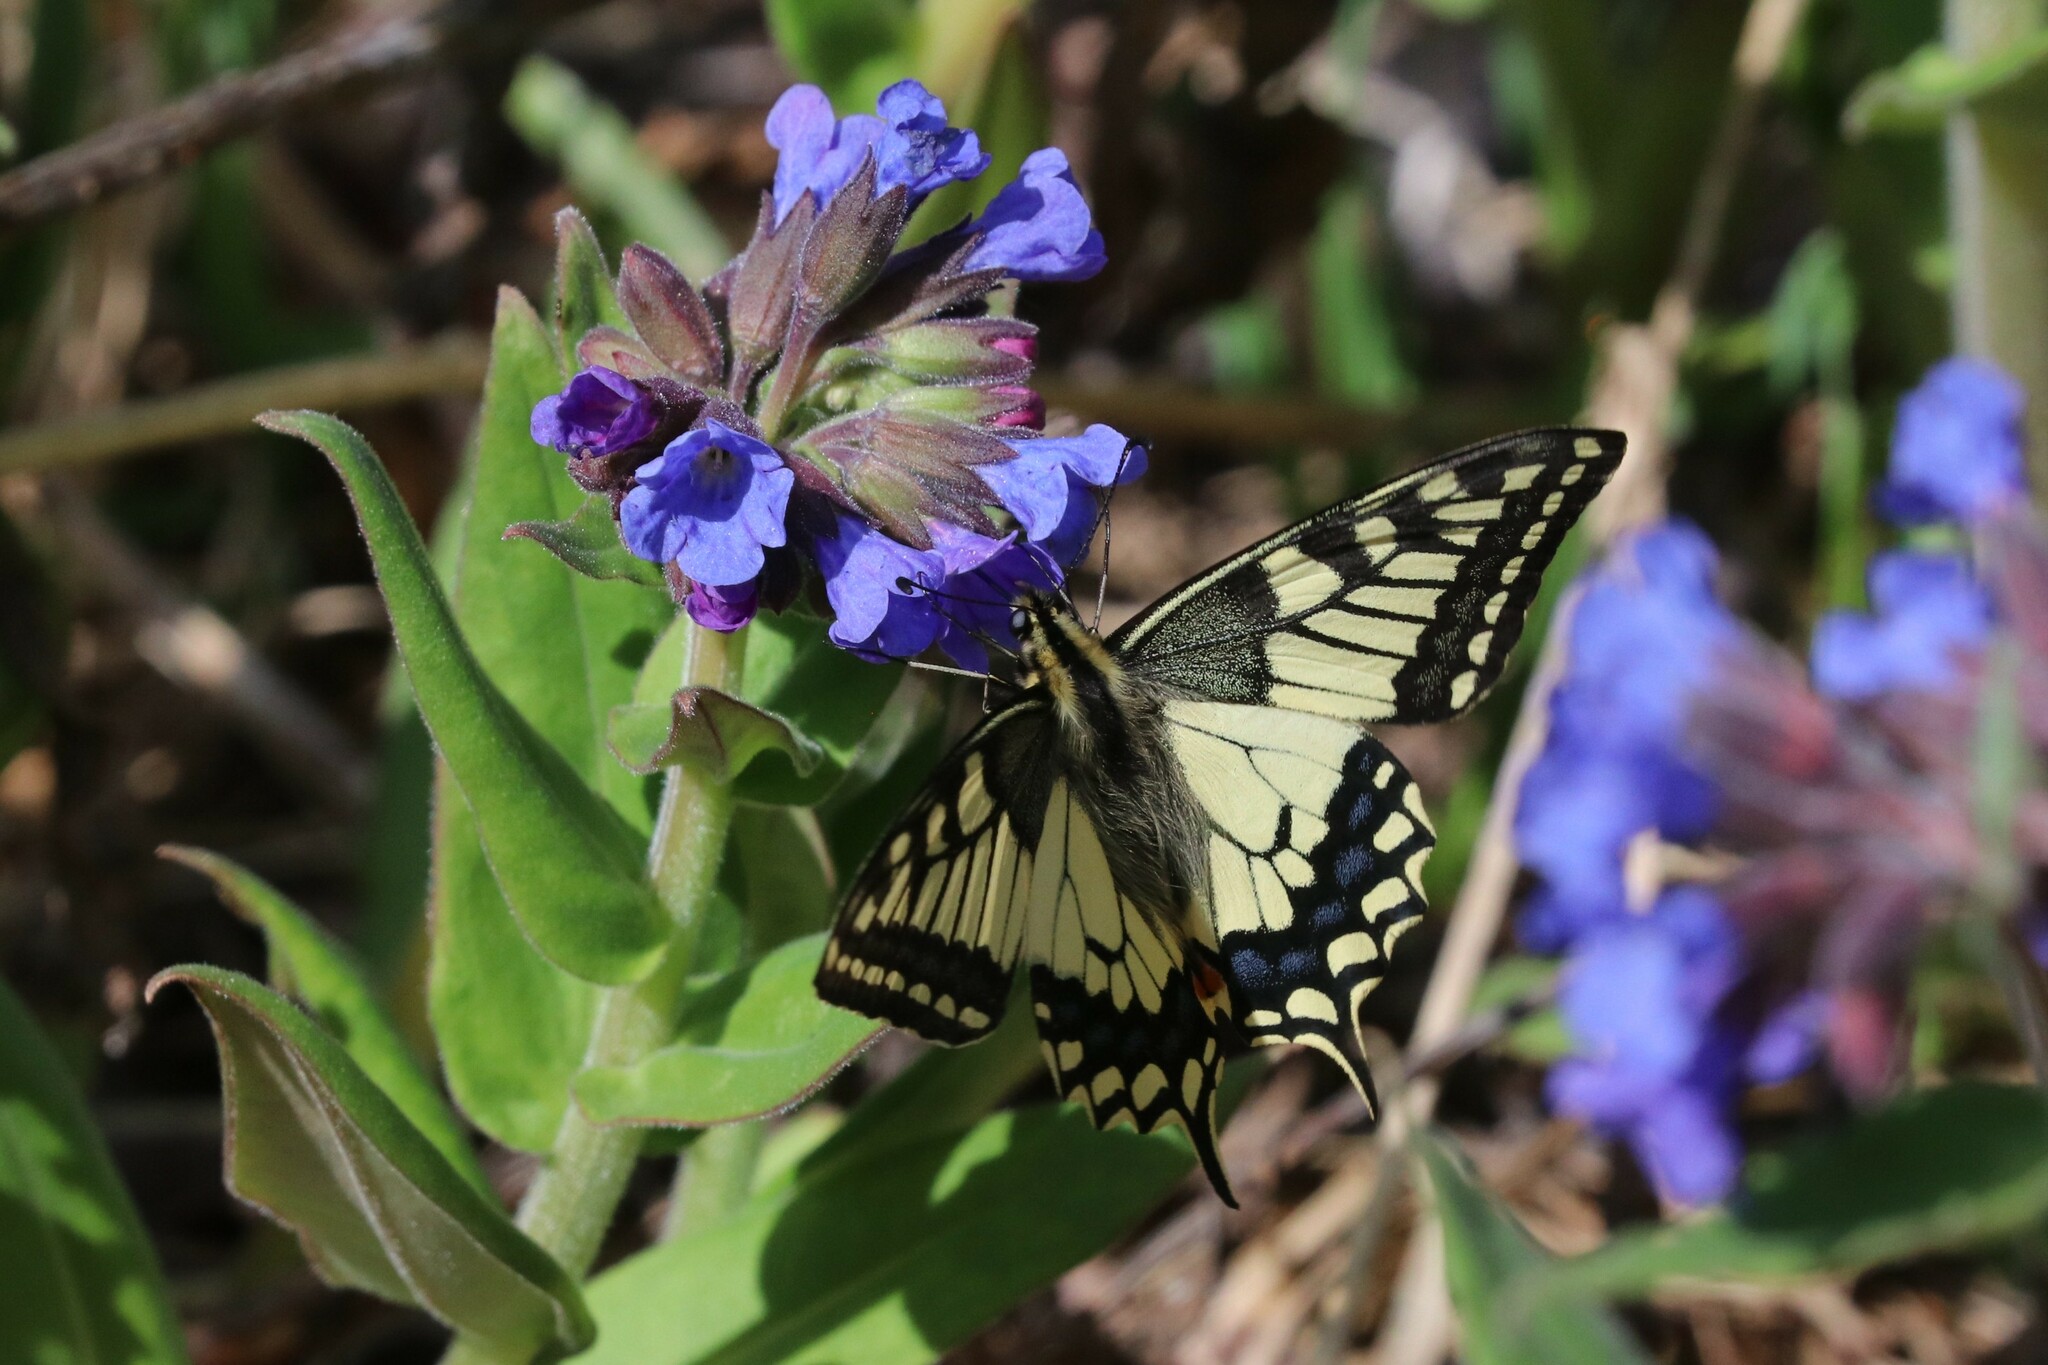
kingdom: Animalia
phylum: Arthropoda
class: Insecta
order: Lepidoptera
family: Papilionidae
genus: Papilio
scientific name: Papilio machaon
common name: Swallowtail
